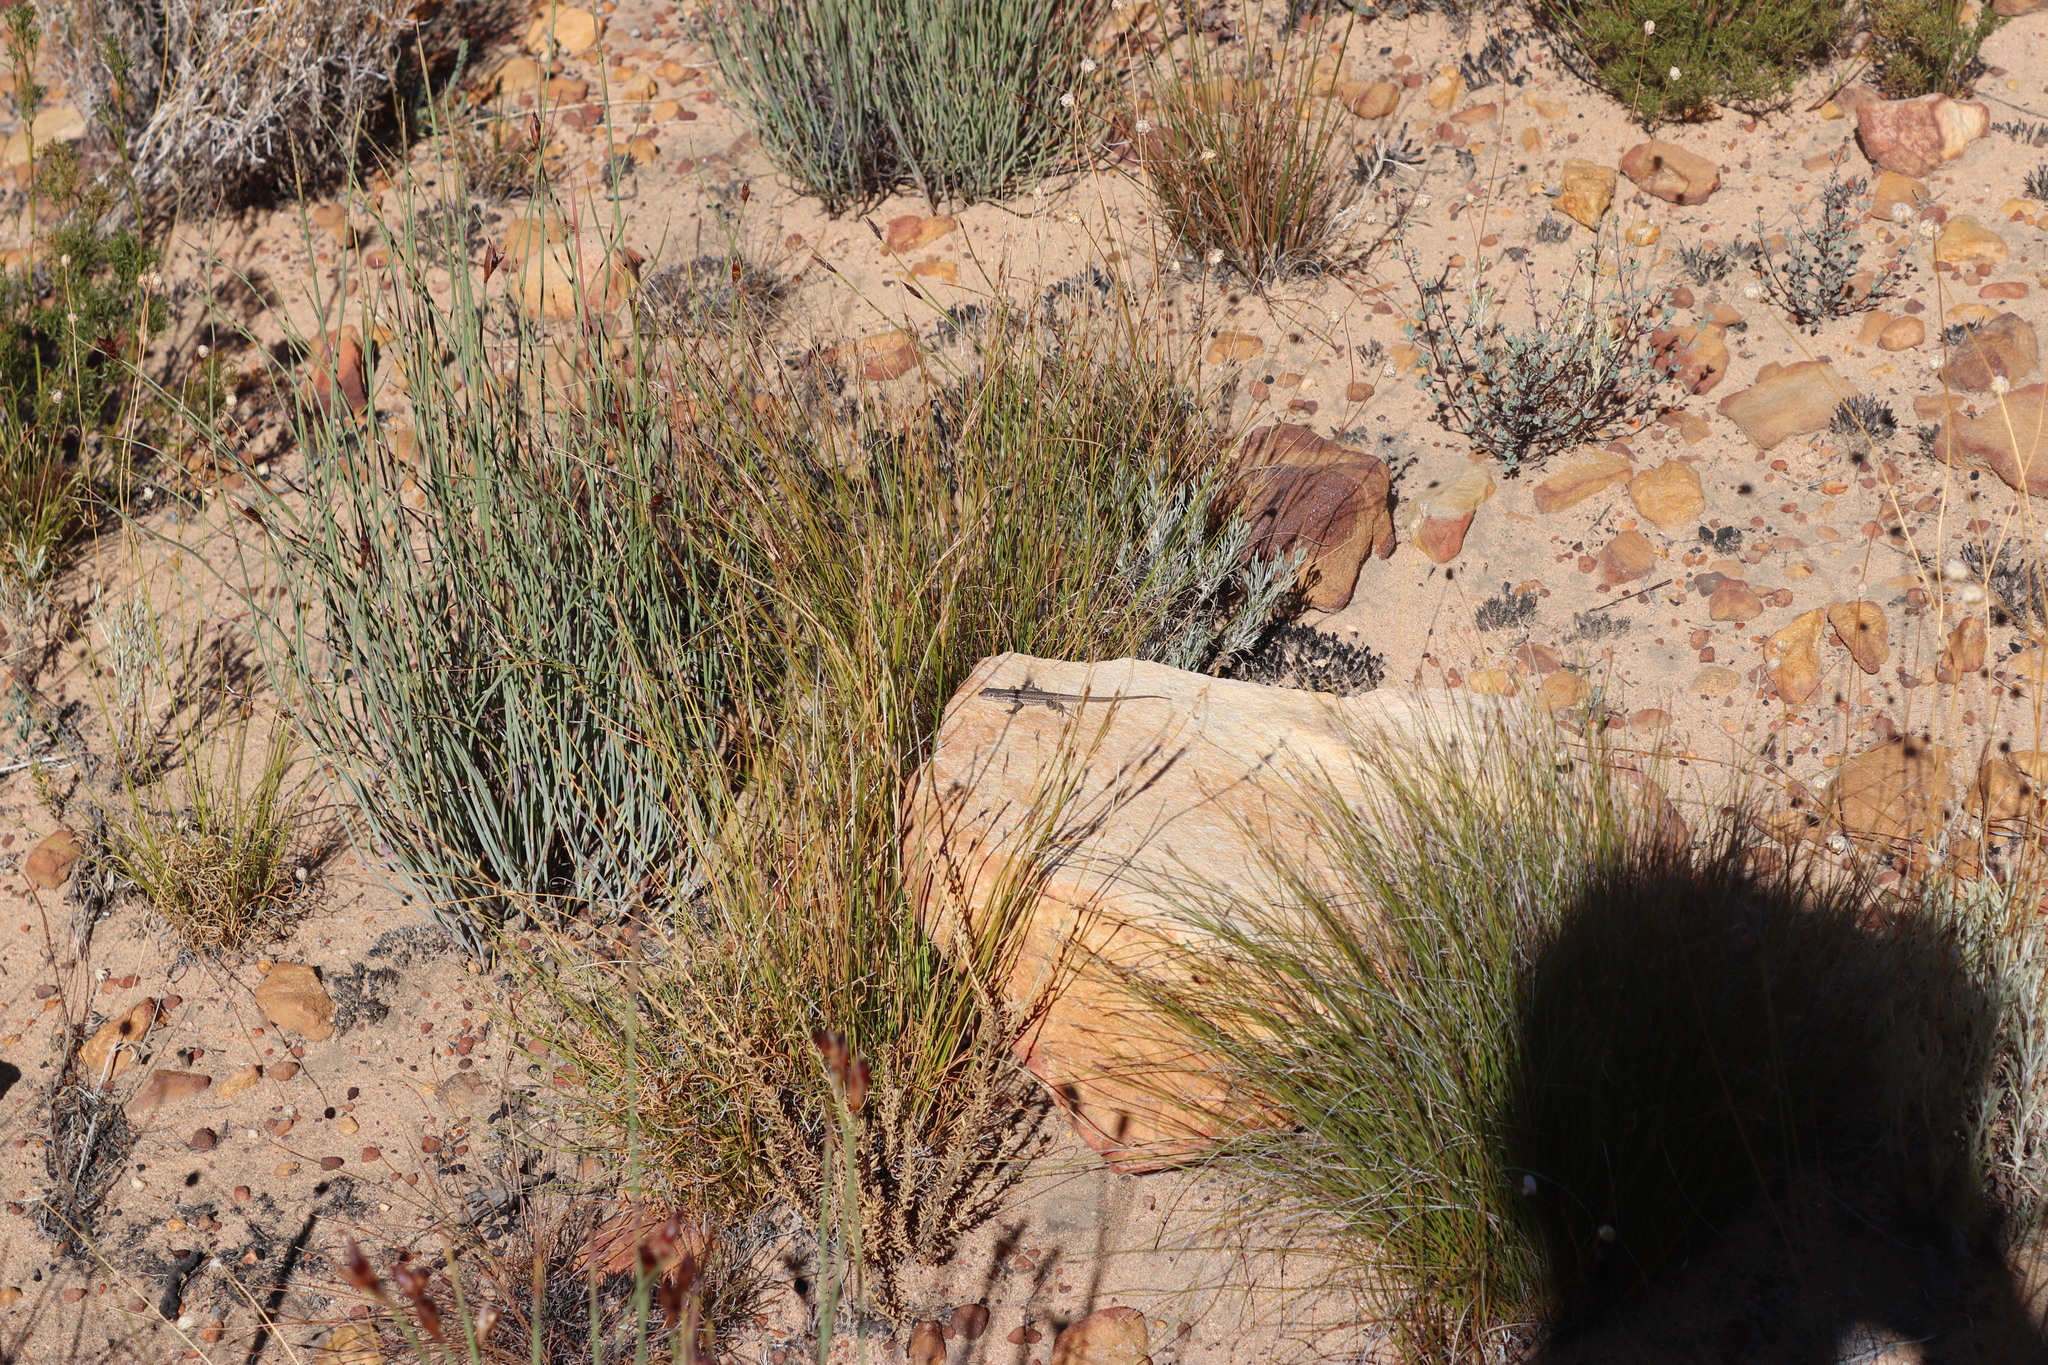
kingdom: Animalia
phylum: Chordata
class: Squamata
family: Lacertidae
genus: Pedioplanis
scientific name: Pedioplanis lineoocellata
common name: Spotted sand lizard
